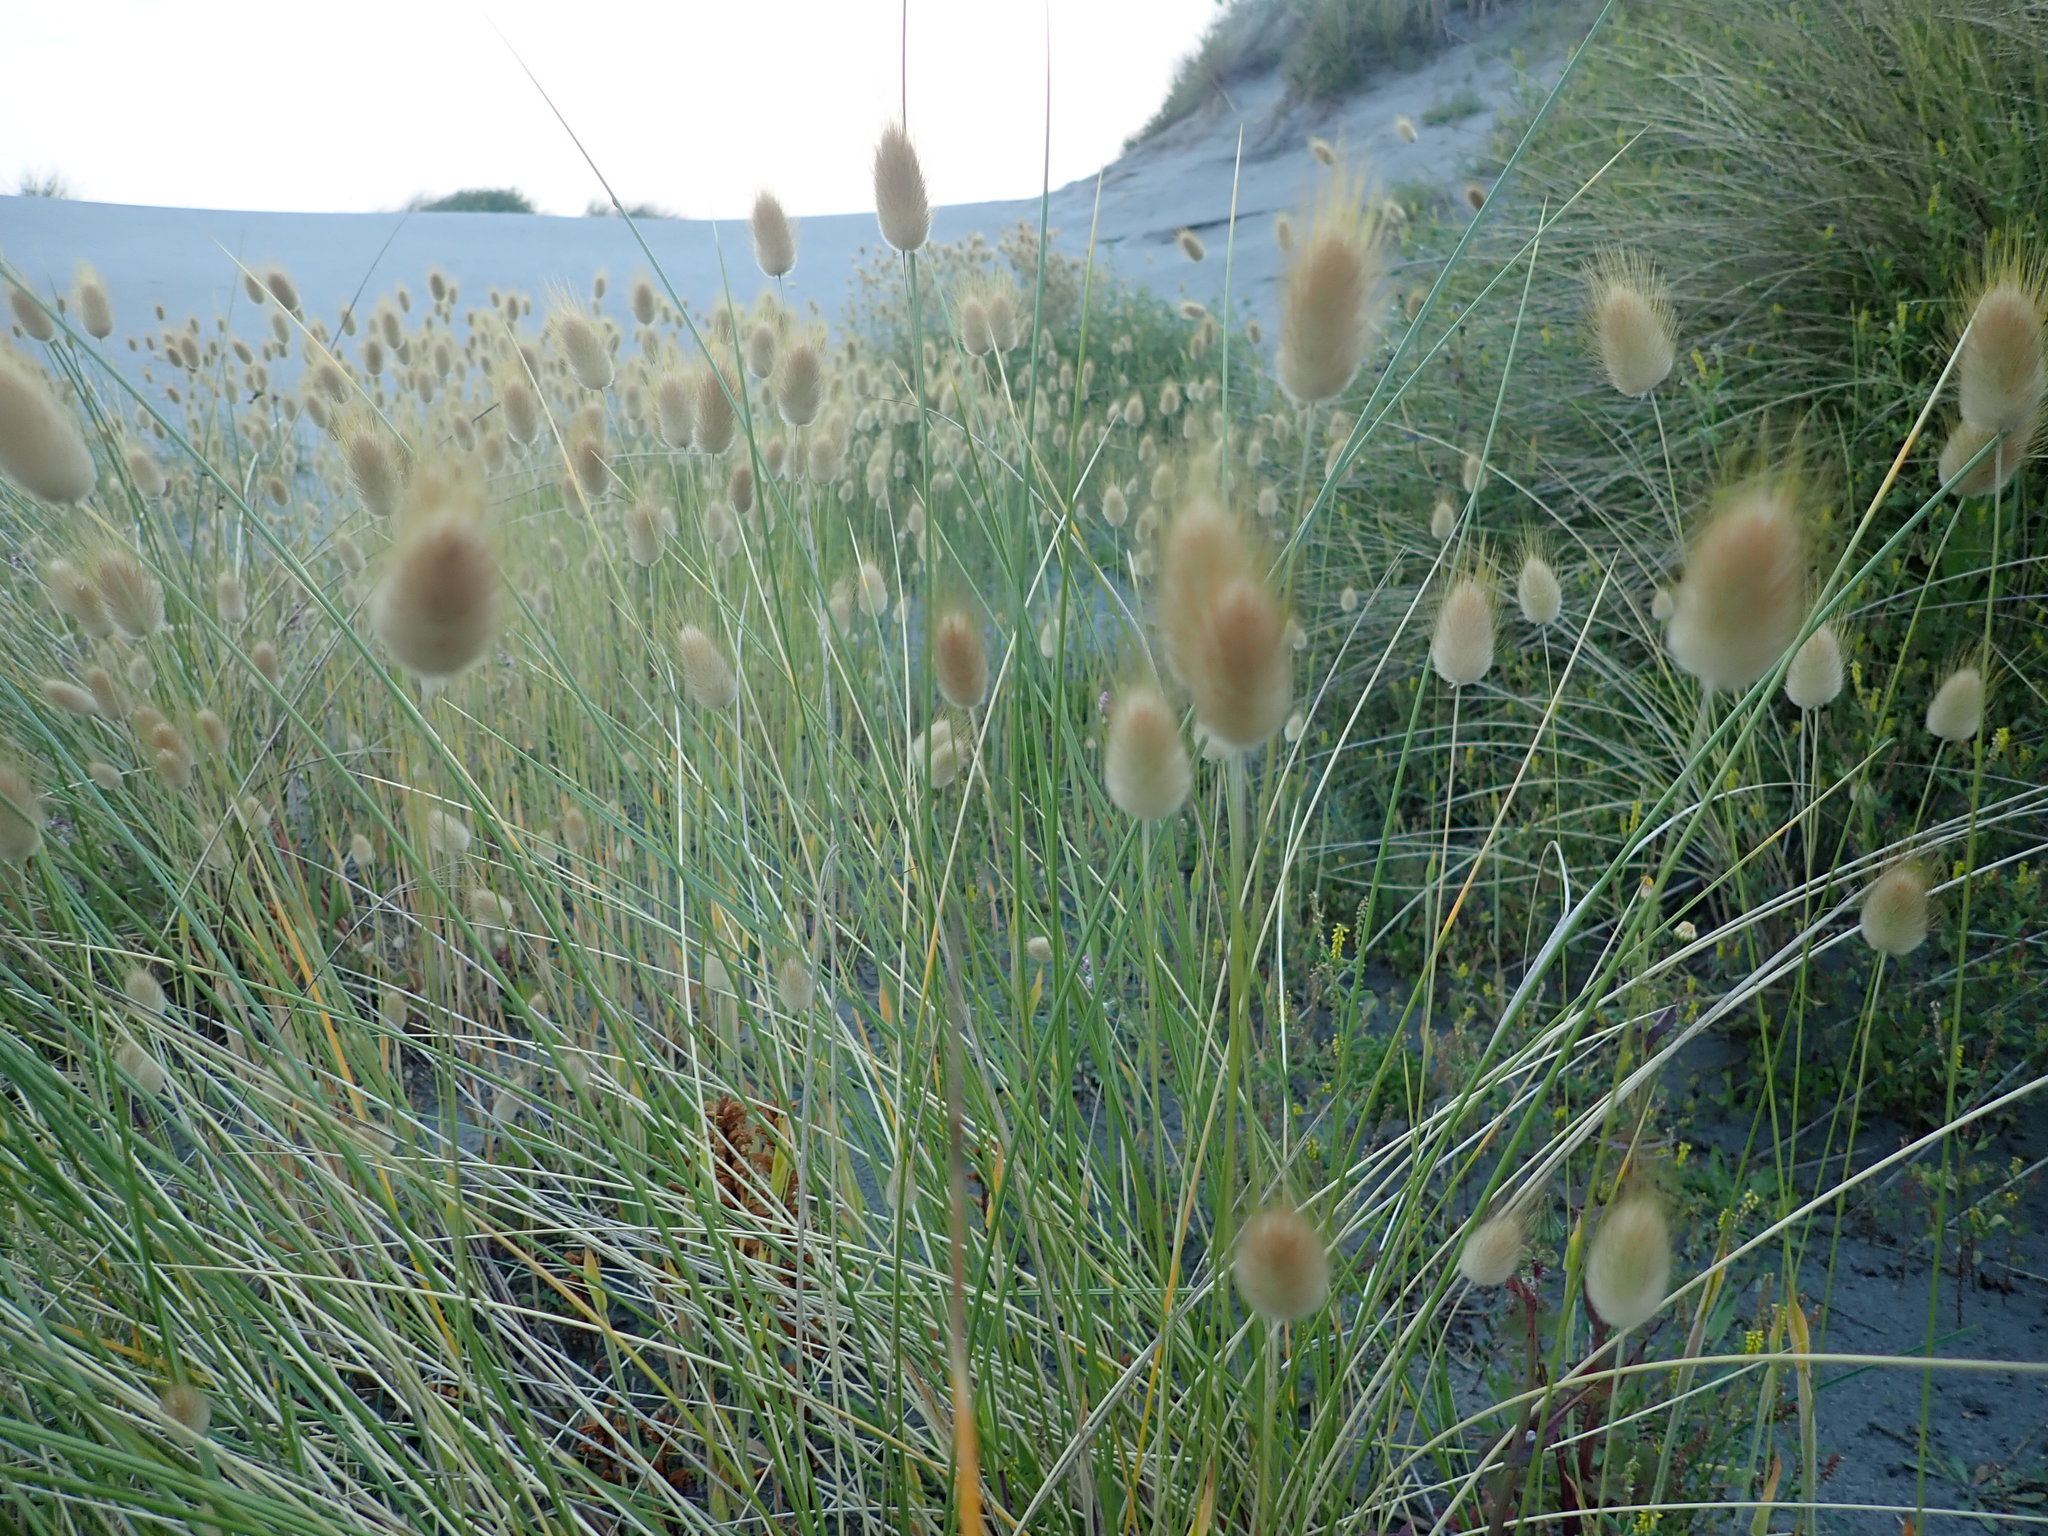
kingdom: Plantae
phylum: Tracheophyta
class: Liliopsida
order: Poales
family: Poaceae
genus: Lagurus
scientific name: Lagurus ovatus
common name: Hare's-tail
